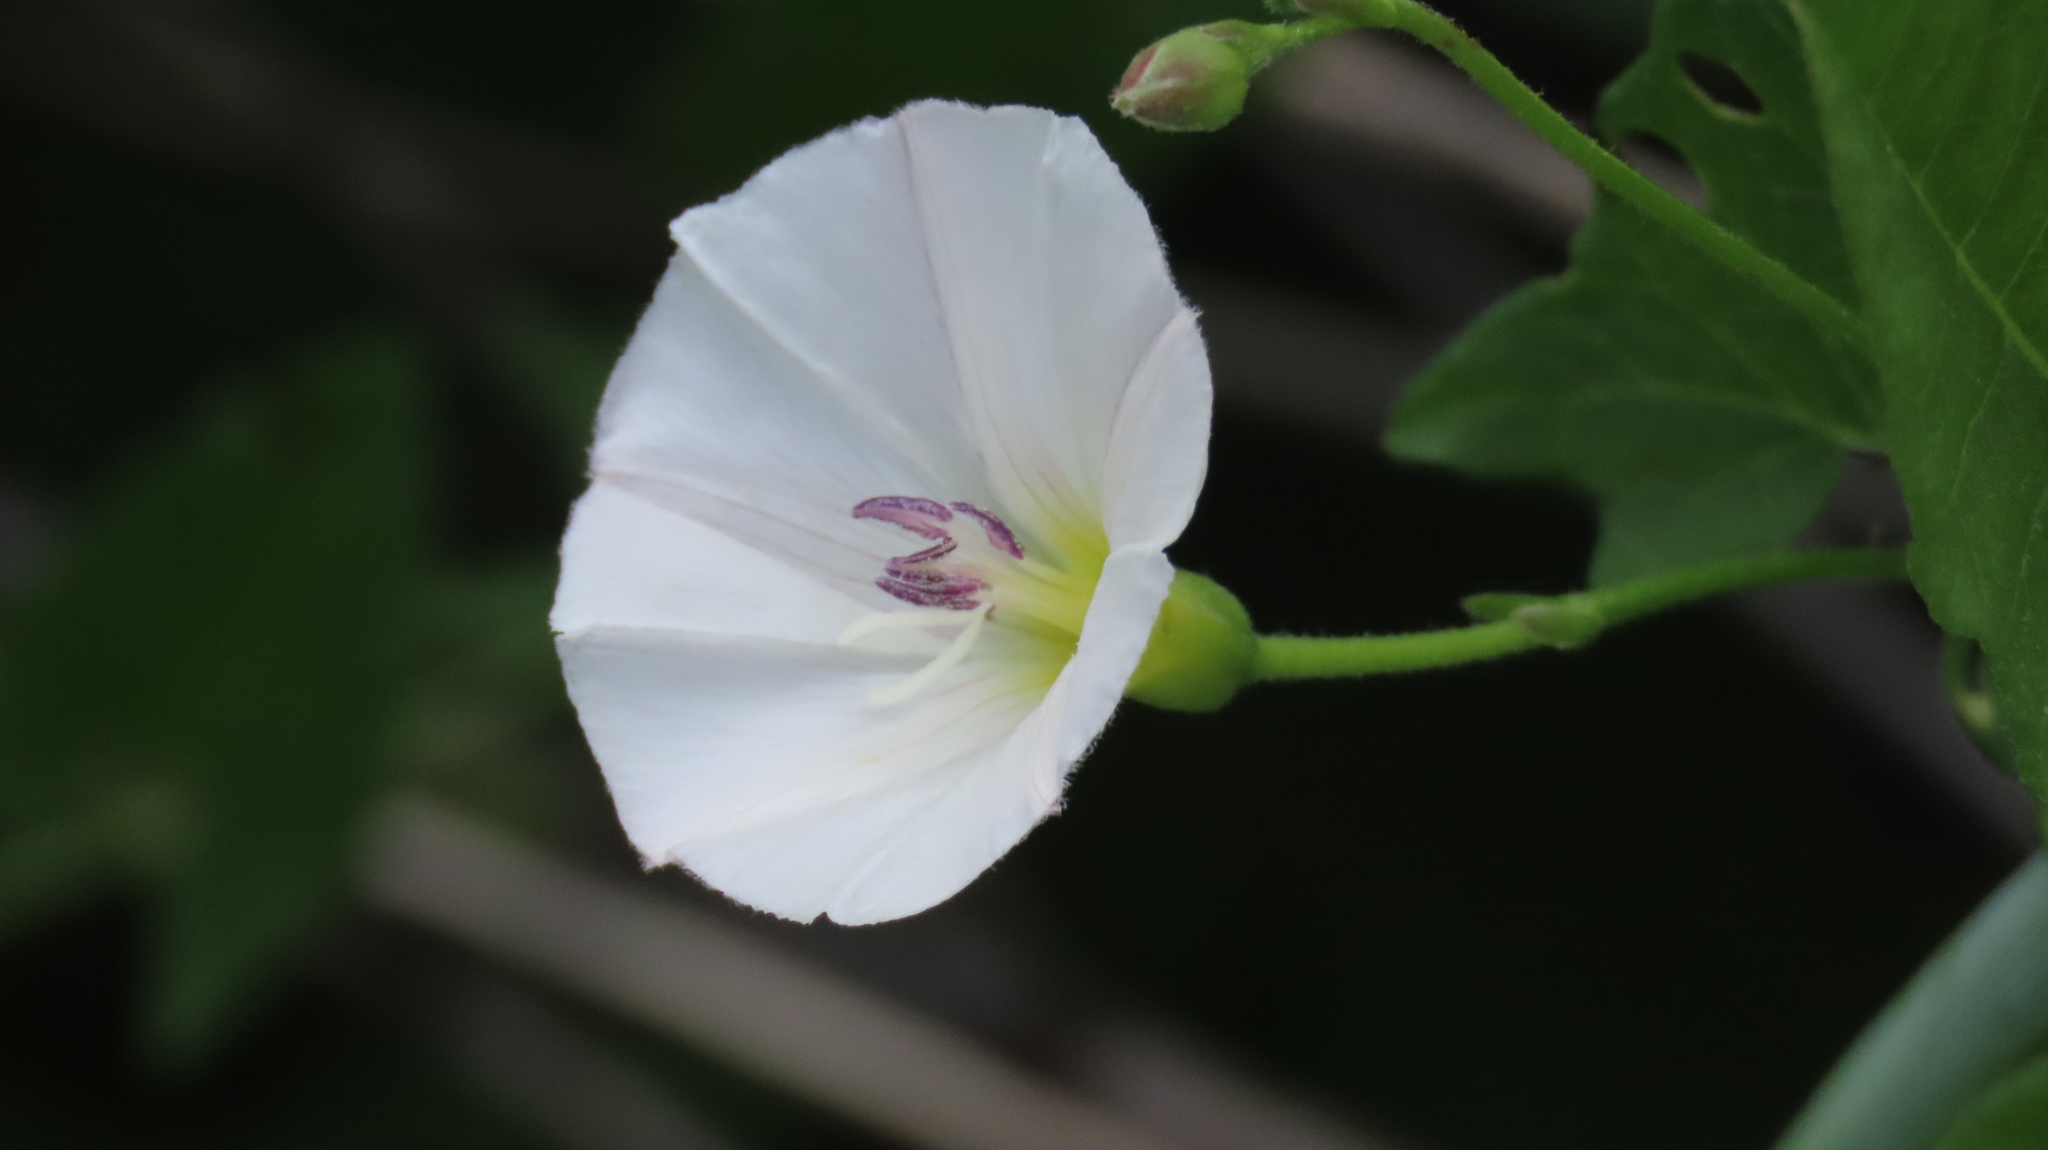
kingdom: Plantae
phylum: Tracheophyta
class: Magnoliopsida
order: Solanales
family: Convolvulaceae
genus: Convolvulus
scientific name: Convolvulus arvensis
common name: Field bindweed
